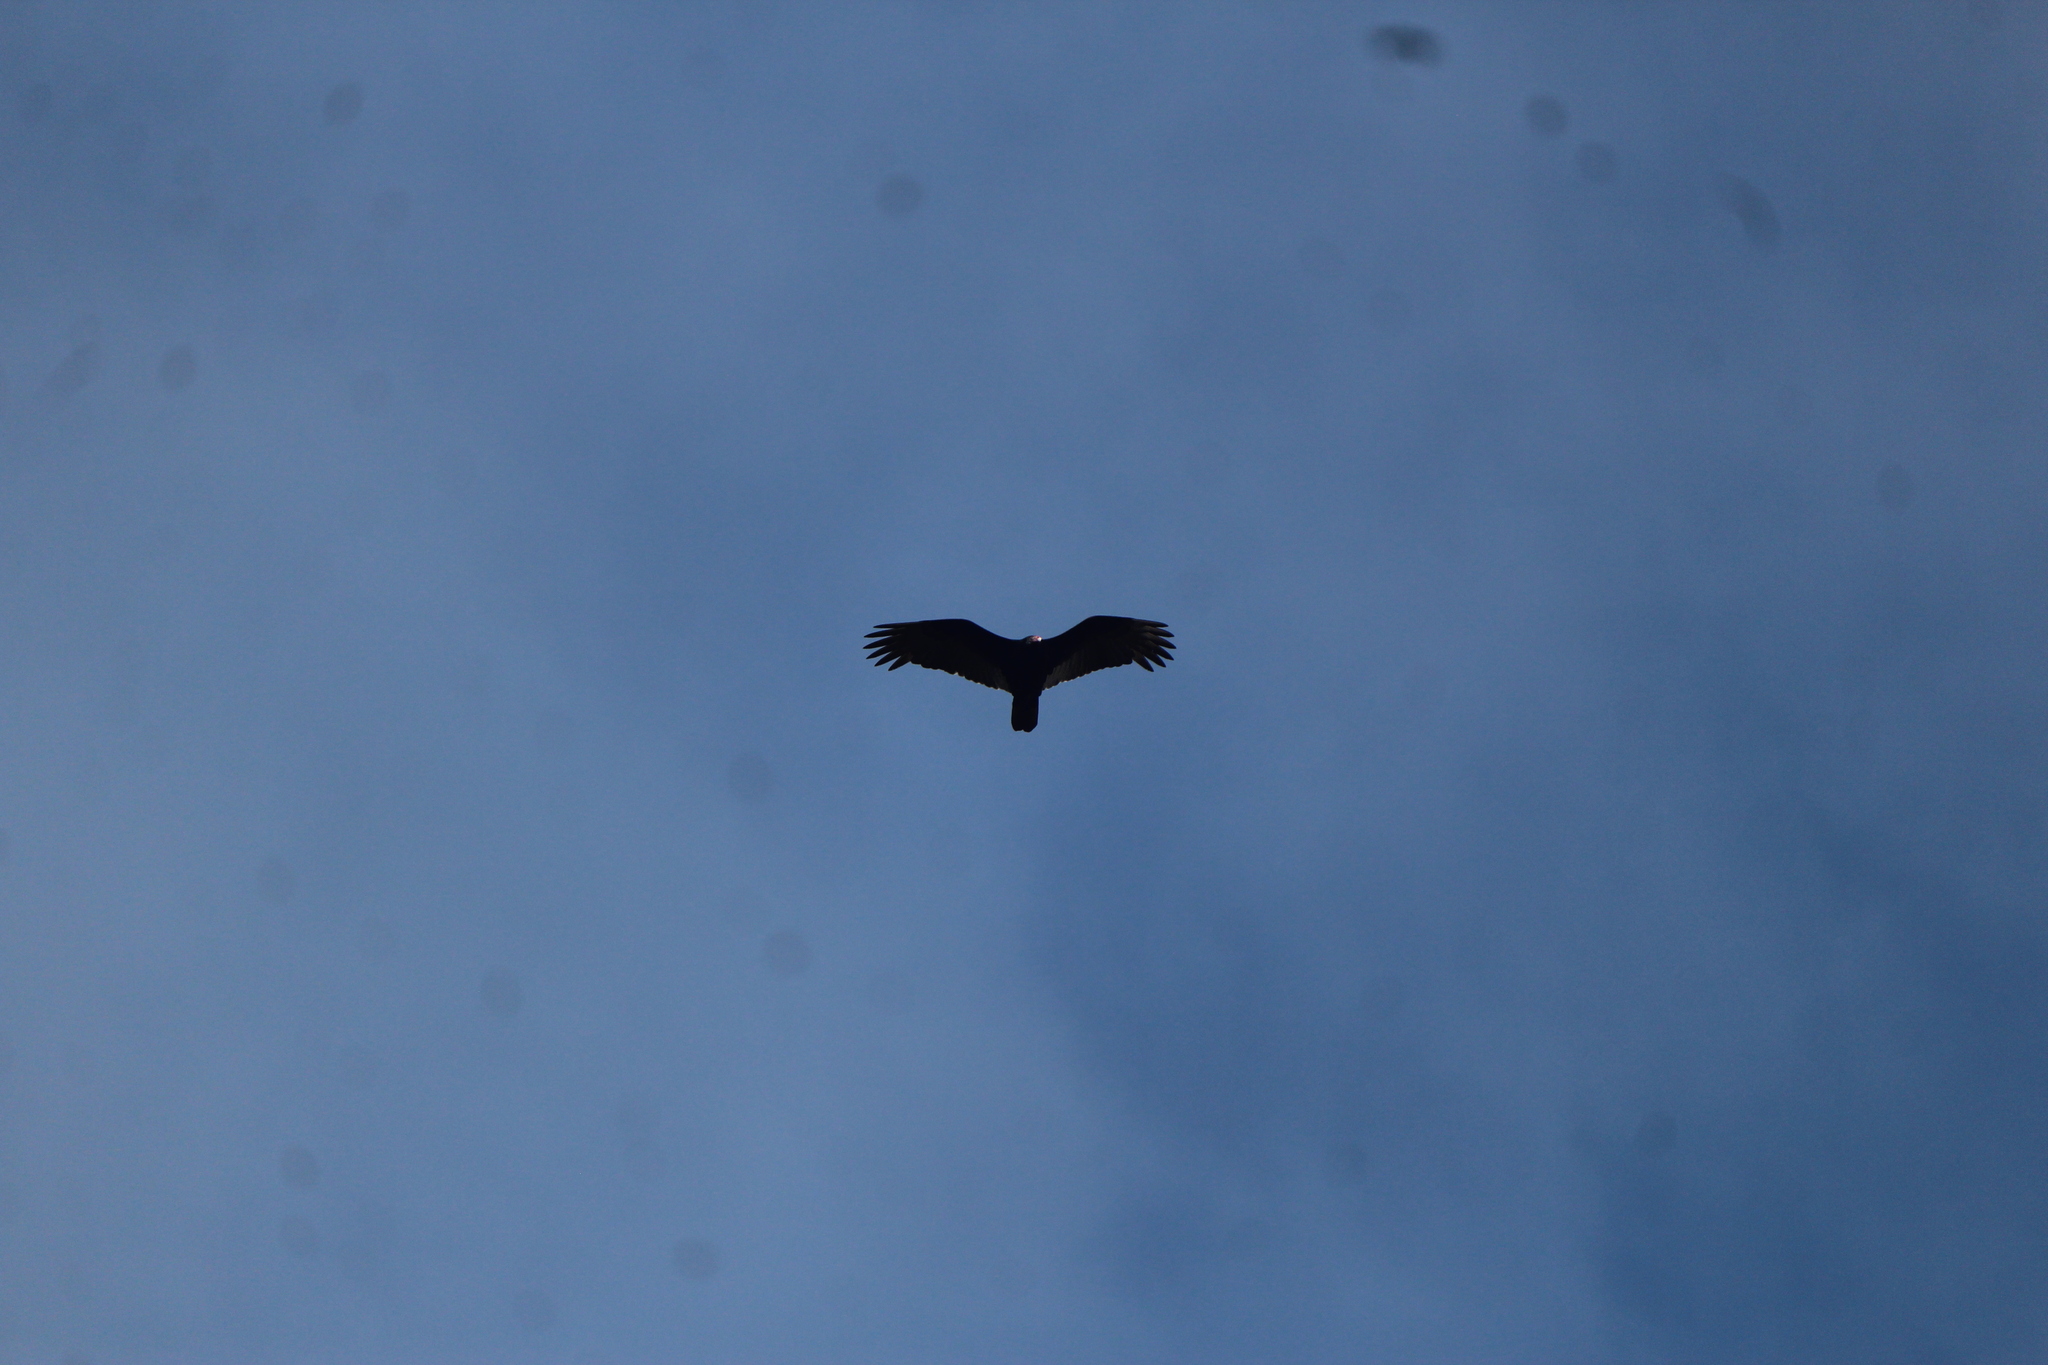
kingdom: Animalia
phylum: Chordata
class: Aves
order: Accipitriformes
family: Cathartidae
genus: Cathartes
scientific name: Cathartes aura
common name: Turkey vulture
